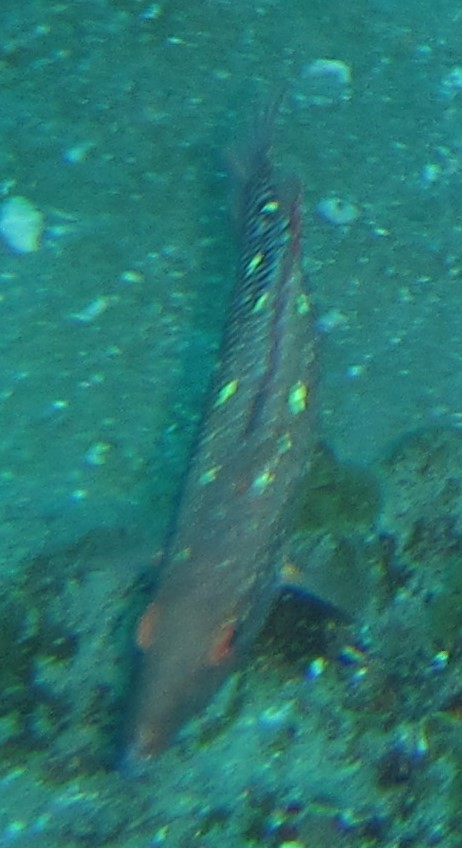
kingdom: Animalia
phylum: Chordata
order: Perciformes
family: Labridae
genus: Bodianus
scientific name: Bodianus diana
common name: Diana's hogfish
